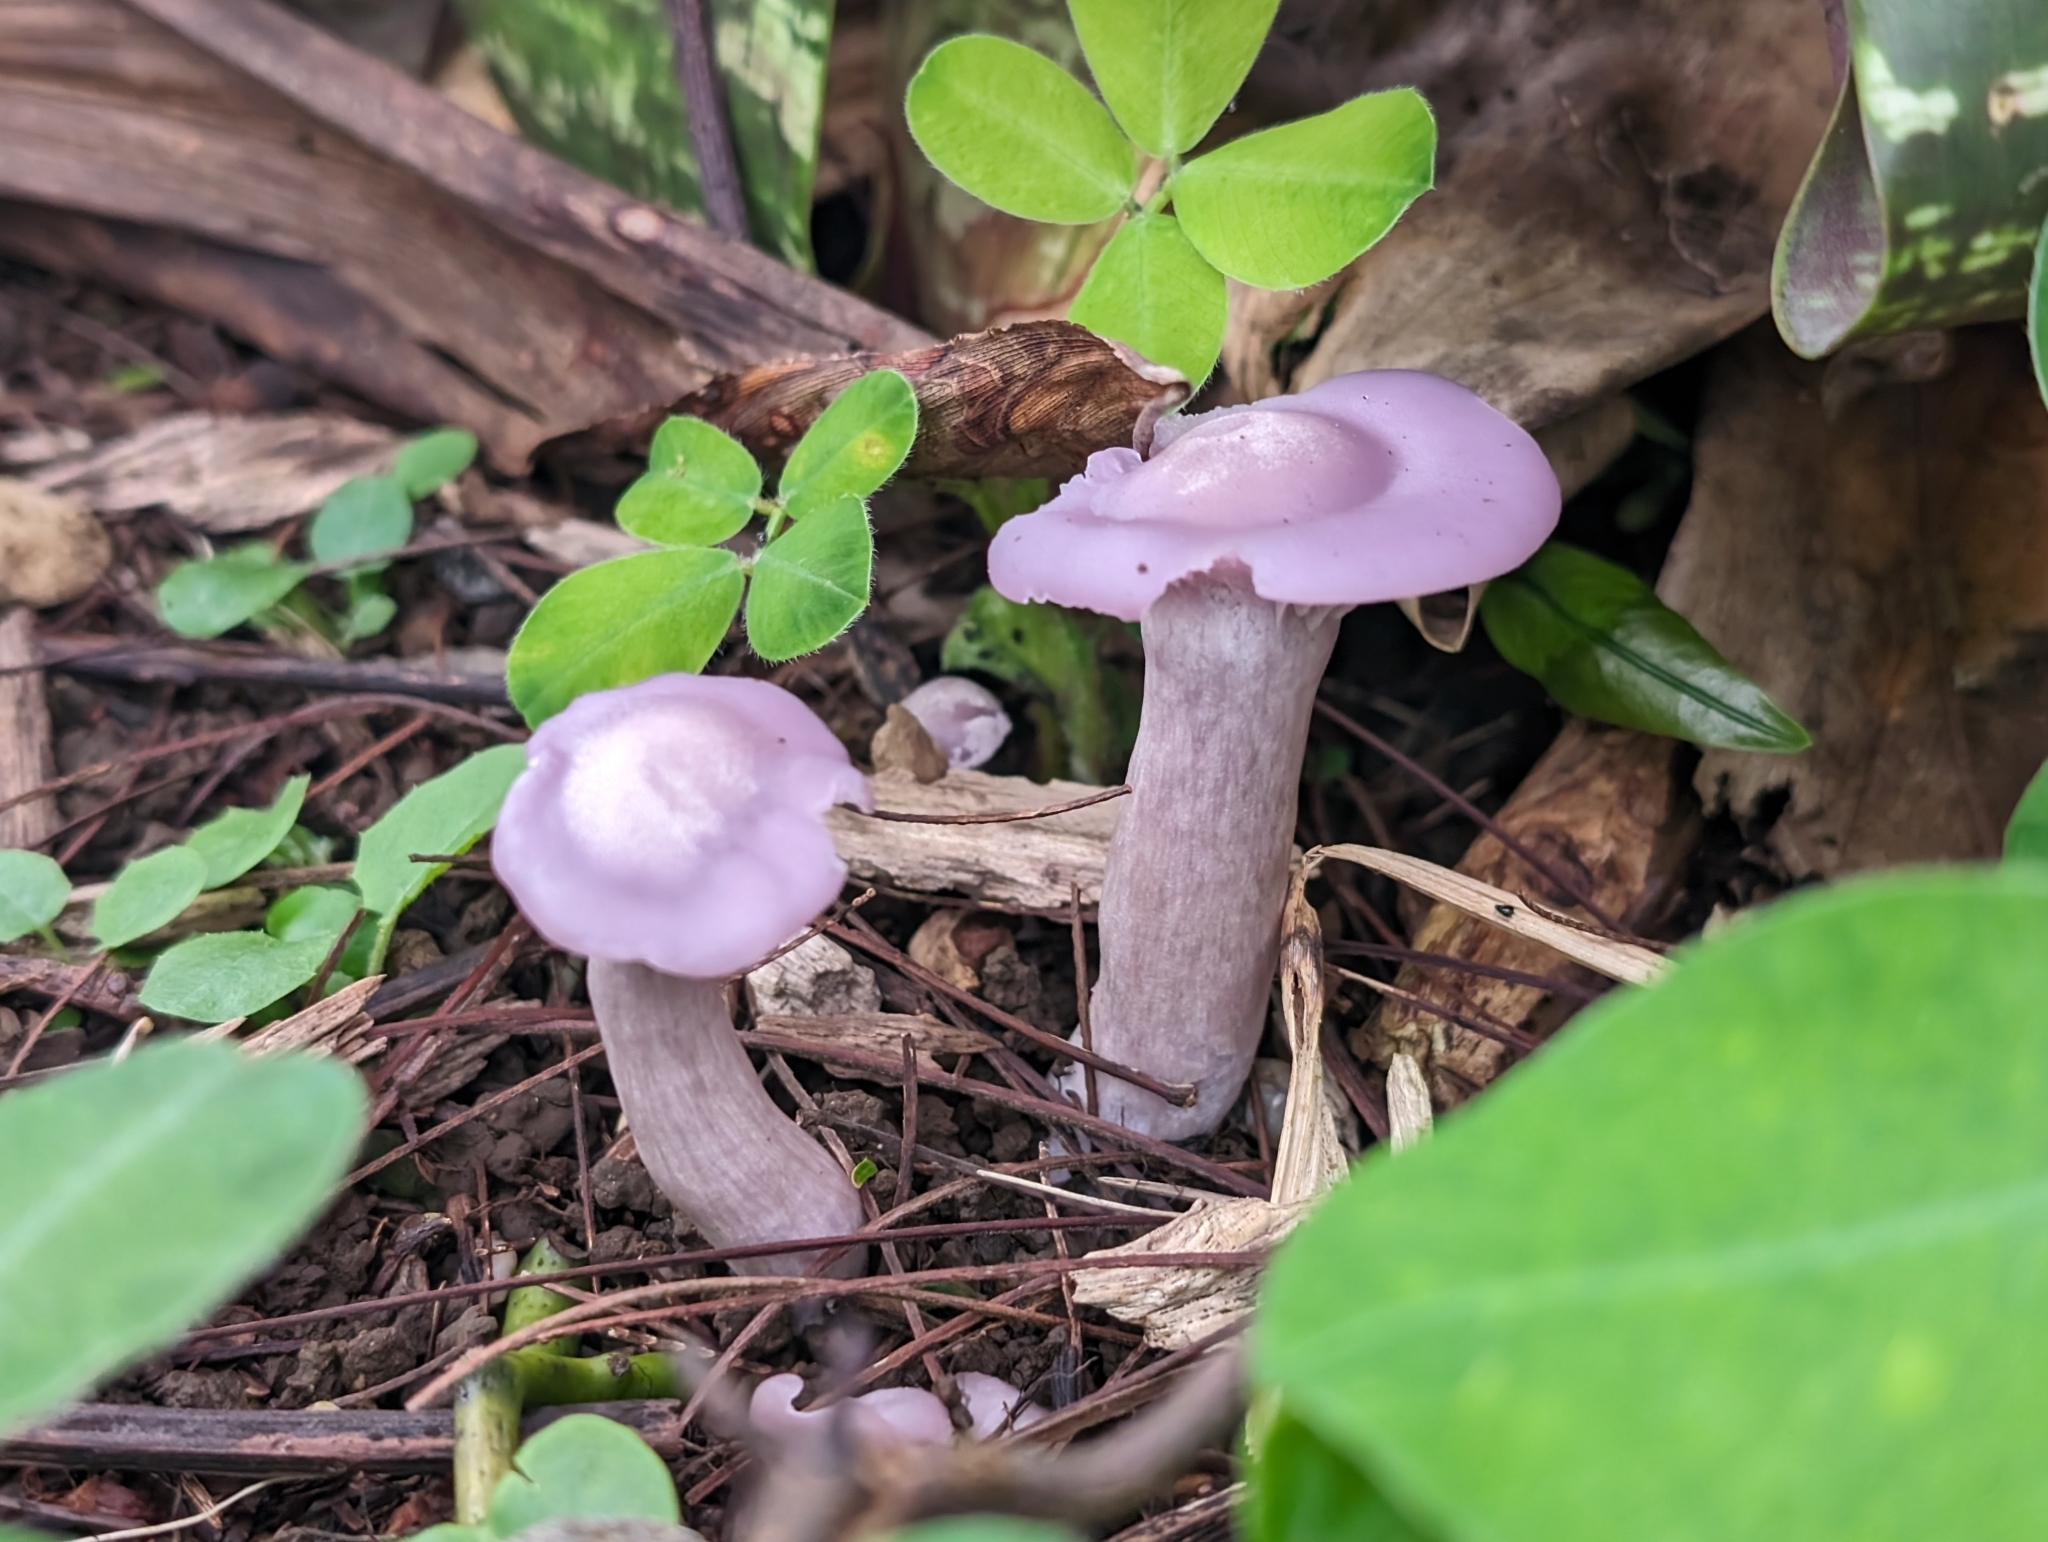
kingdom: Fungi
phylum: Basidiomycota
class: Agaricomycetes
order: Agaricales
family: Tricholomataceae
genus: Lepista
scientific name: Lepista tarda
